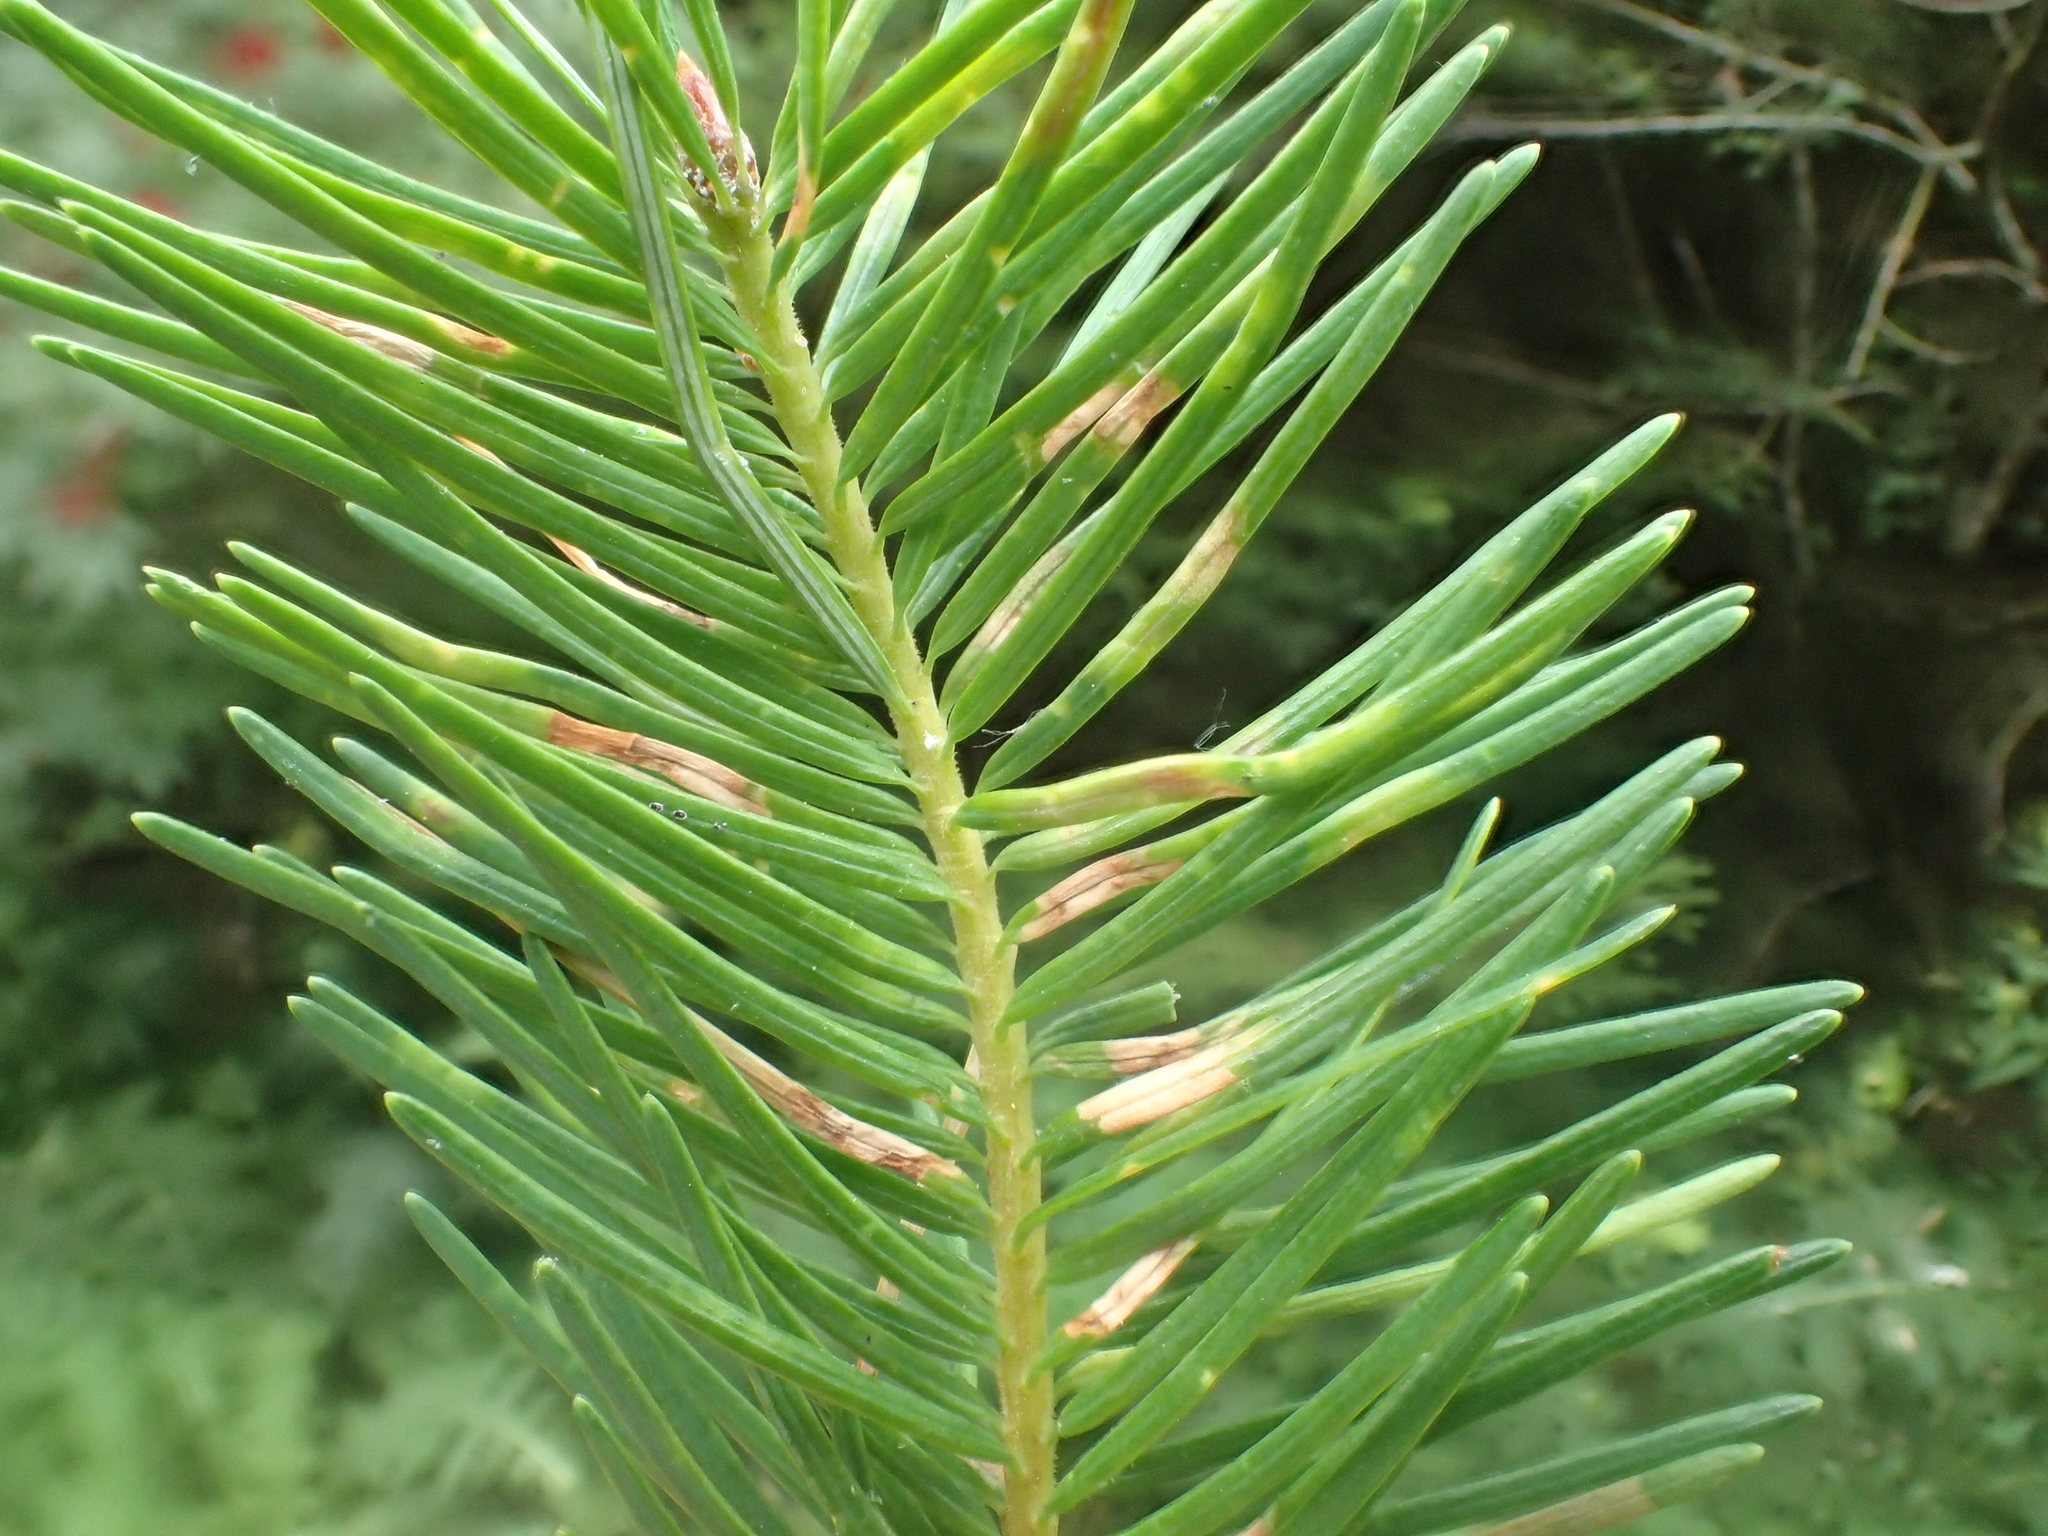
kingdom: Animalia
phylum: Arthropoda
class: Insecta
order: Diptera
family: Cecidomyiidae
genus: Contarinia
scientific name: Contarinia pseudotsugae
